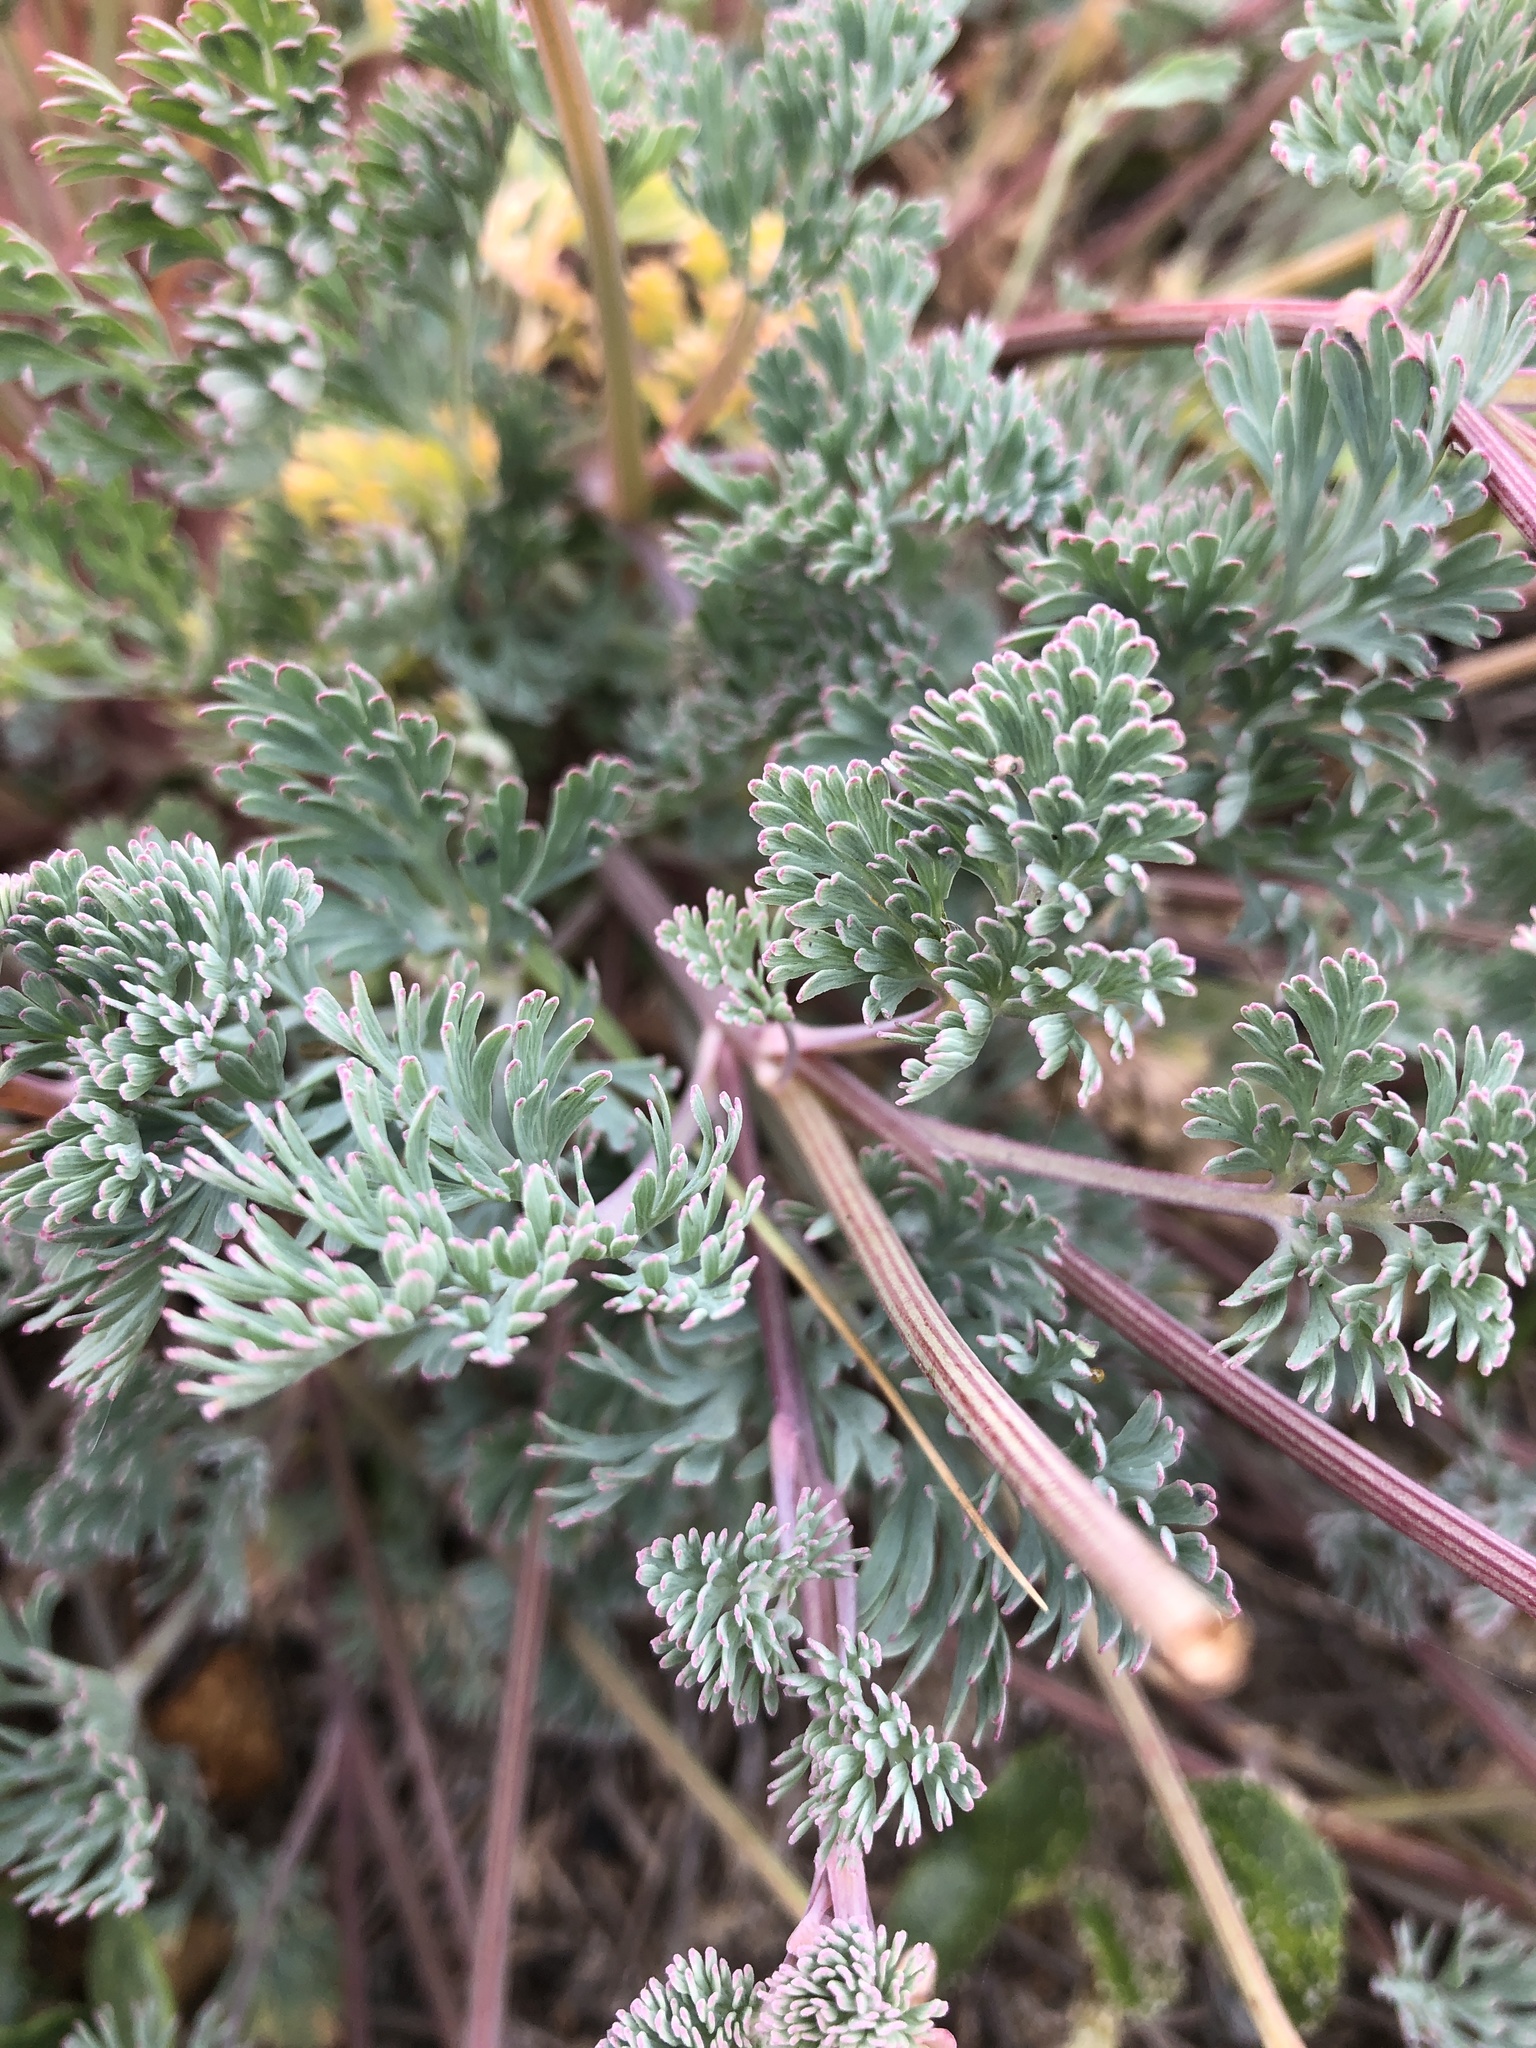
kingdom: Plantae
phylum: Tracheophyta
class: Magnoliopsida
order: Ranunculales
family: Papaveraceae
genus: Eschscholzia
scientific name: Eschscholzia californica
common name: California poppy
